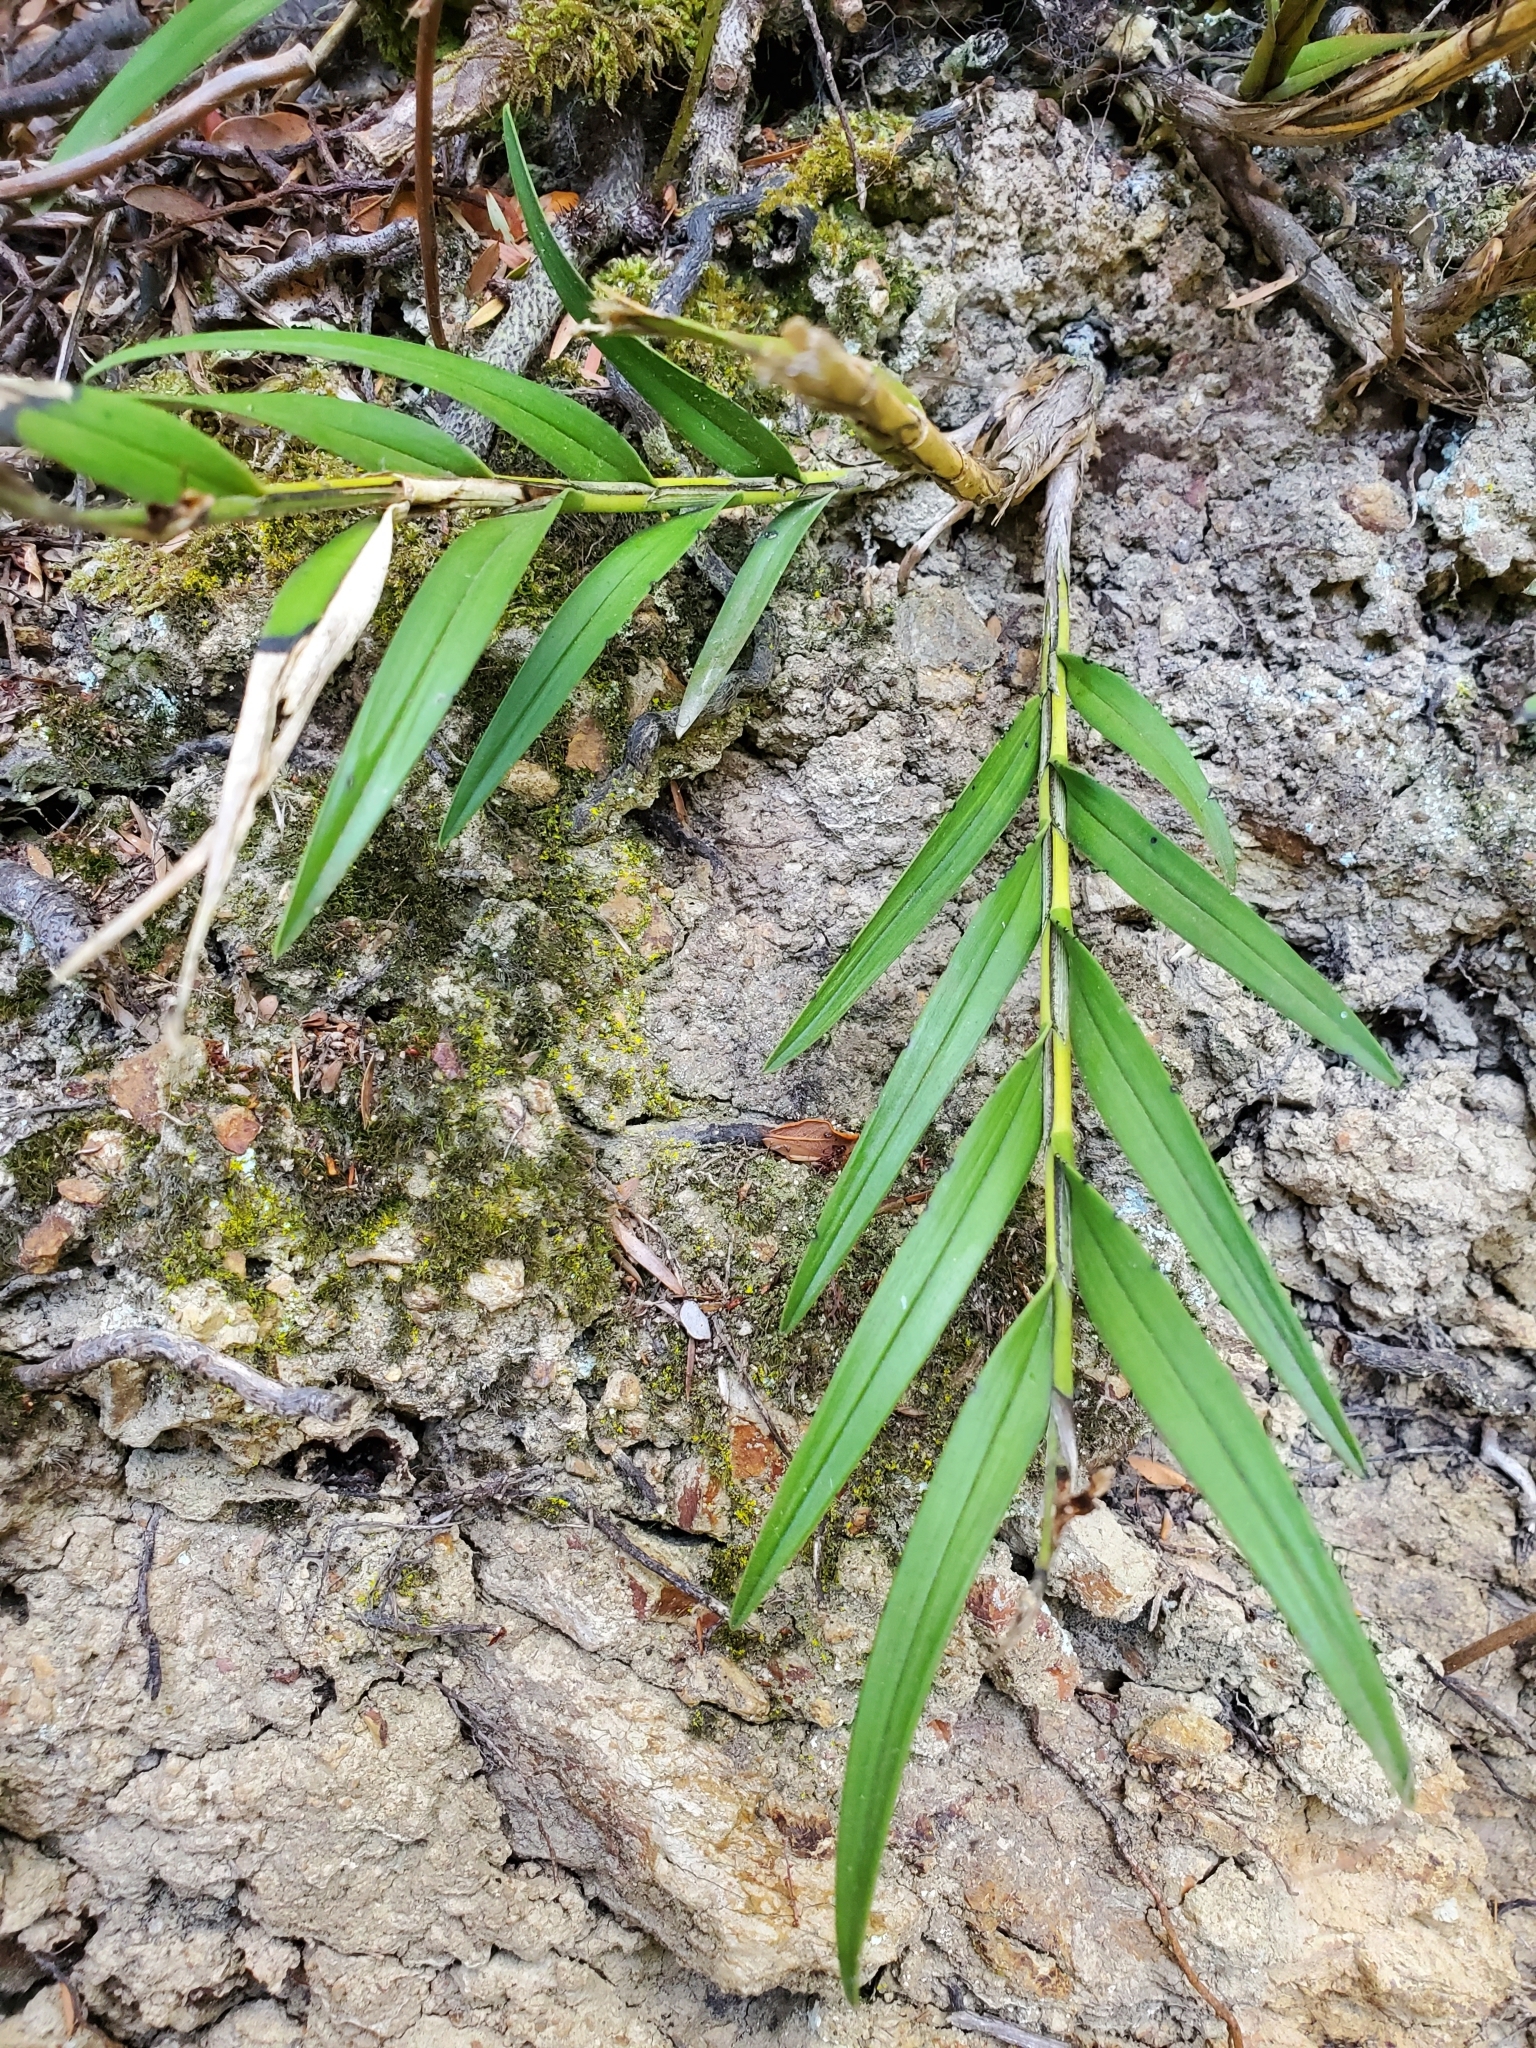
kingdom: Plantae
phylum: Tracheophyta
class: Liliopsida
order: Asparagales
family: Orchidaceae
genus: Earina
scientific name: Earina autumnalis
